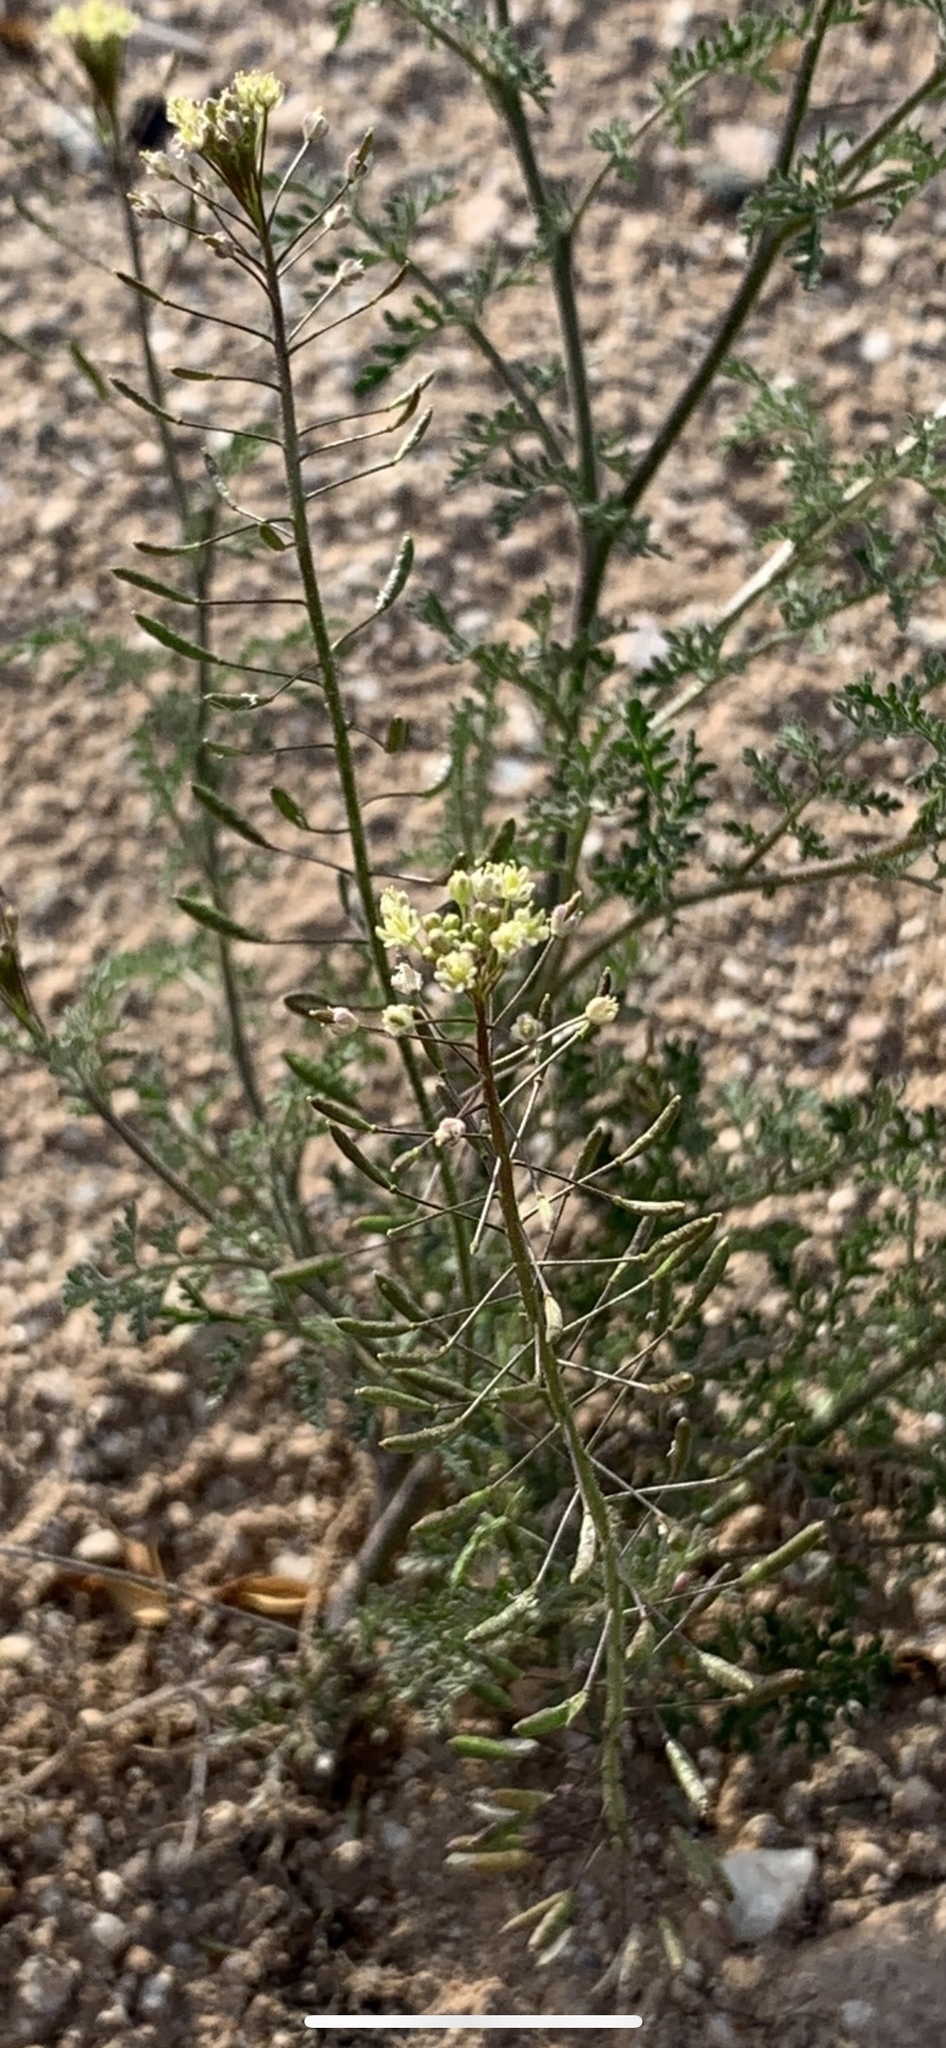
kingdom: Plantae
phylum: Tracheophyta
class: Magnoliopsida
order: Brassicales
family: Brassicaceae
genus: Descurainia
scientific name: Descurainia pinnata
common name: Western tansy mustard
